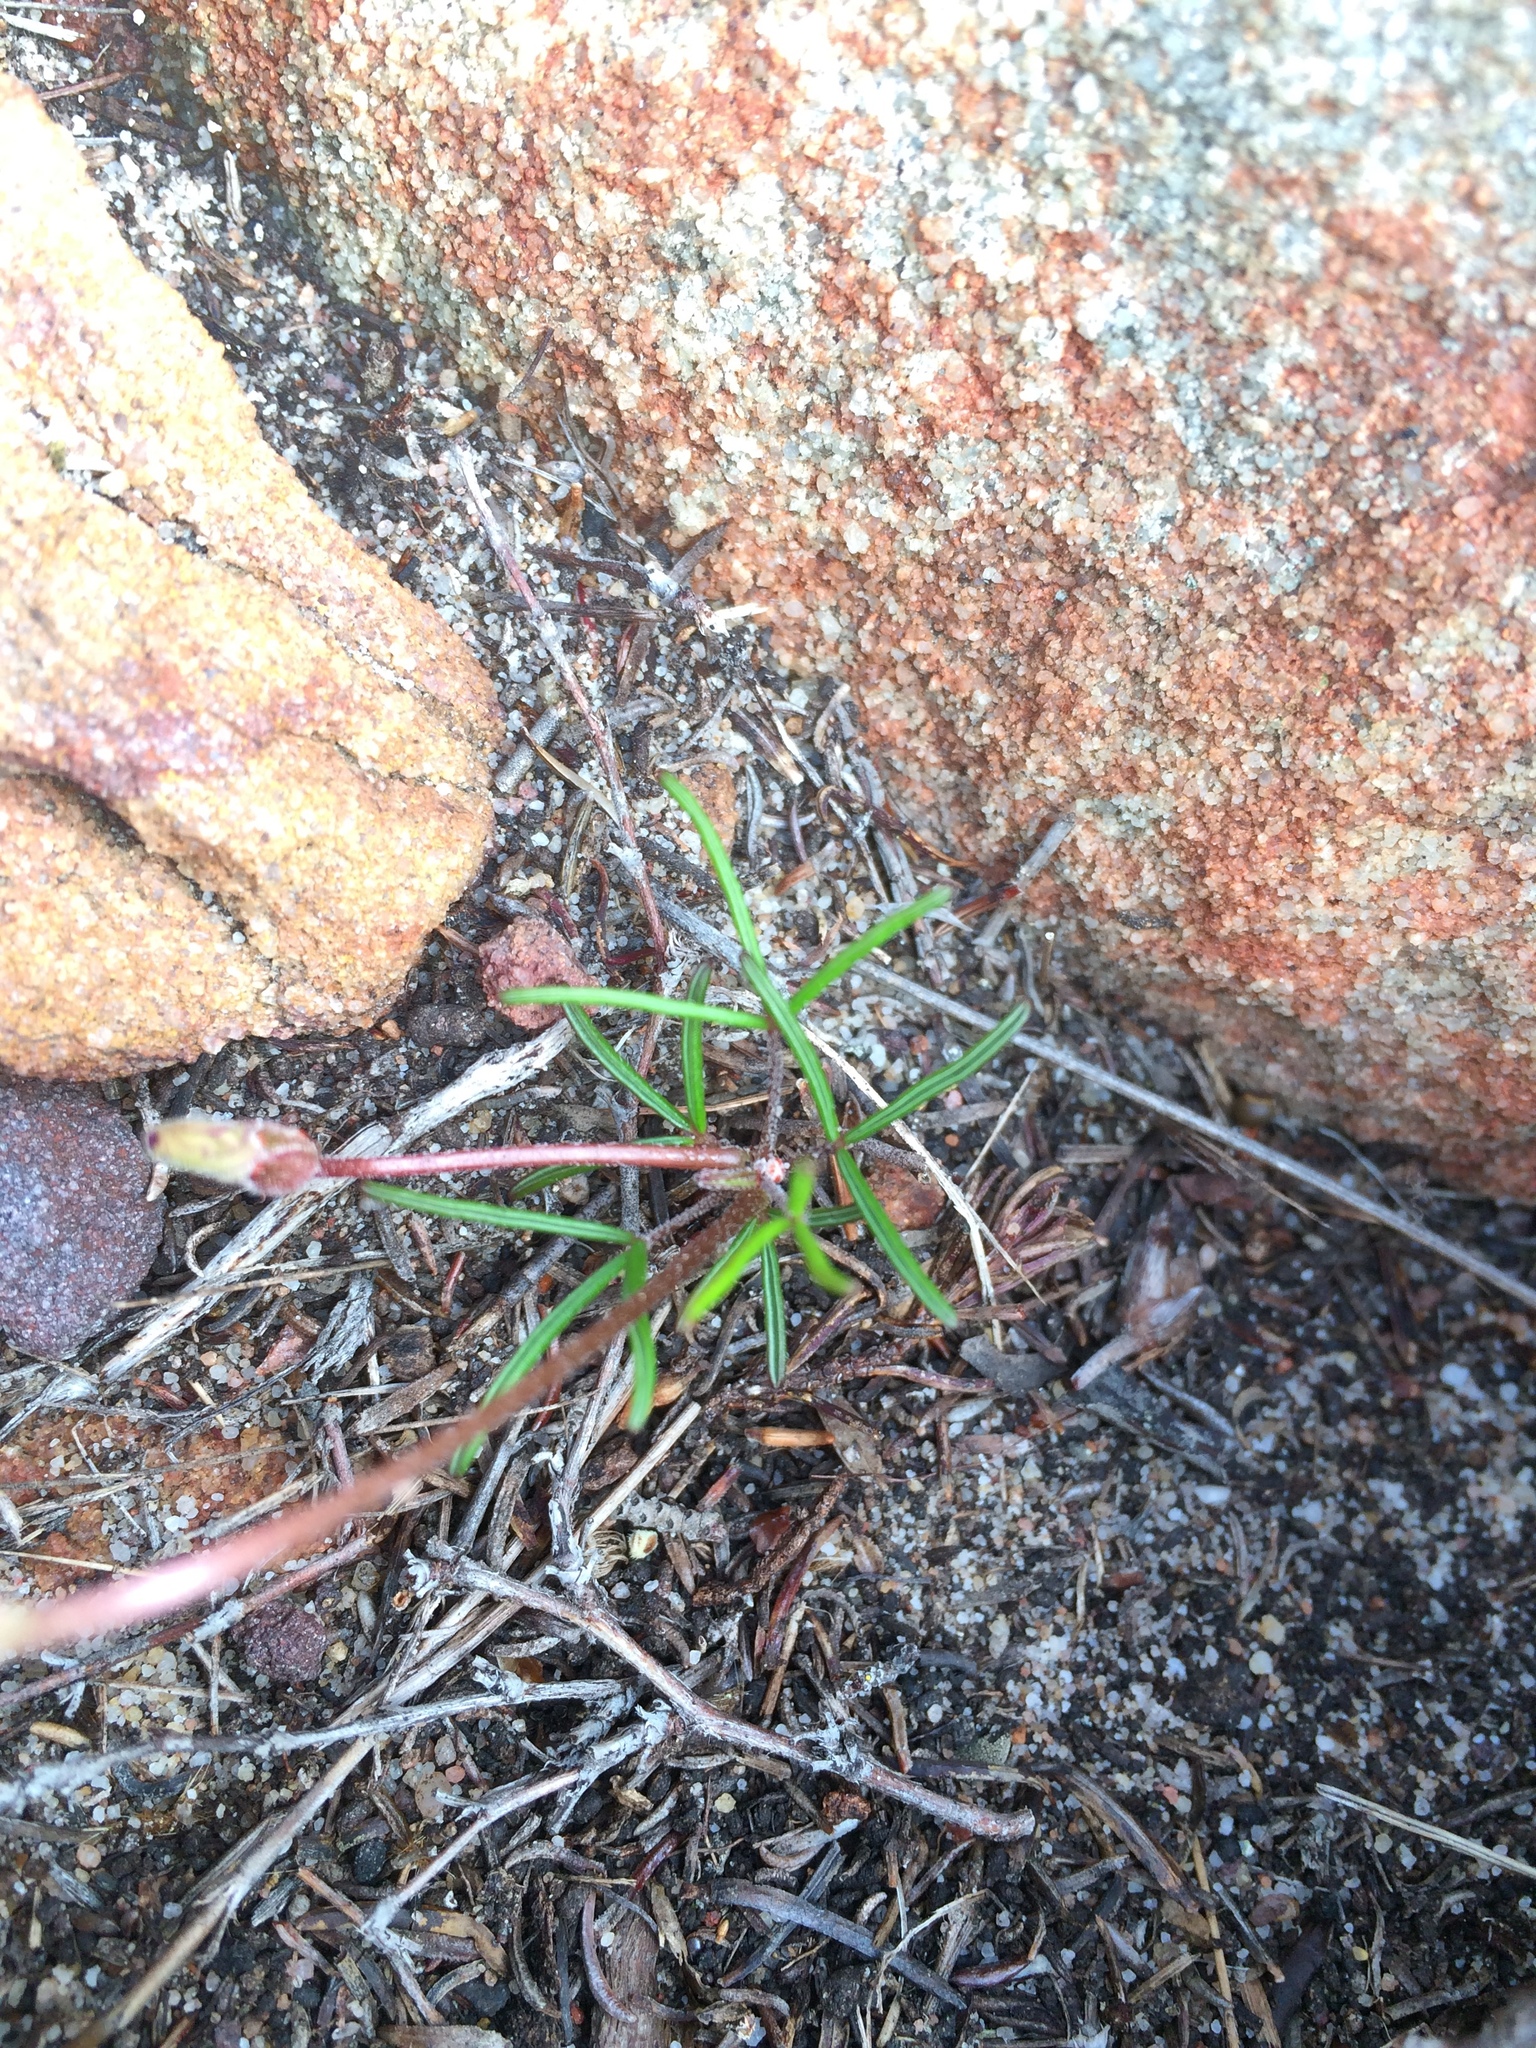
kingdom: Plantae
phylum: Tracheophyta
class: Magnoliopsida
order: Oxalidales
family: Oxalidaceae
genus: Oxalis
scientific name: Oxalis polyphylla
